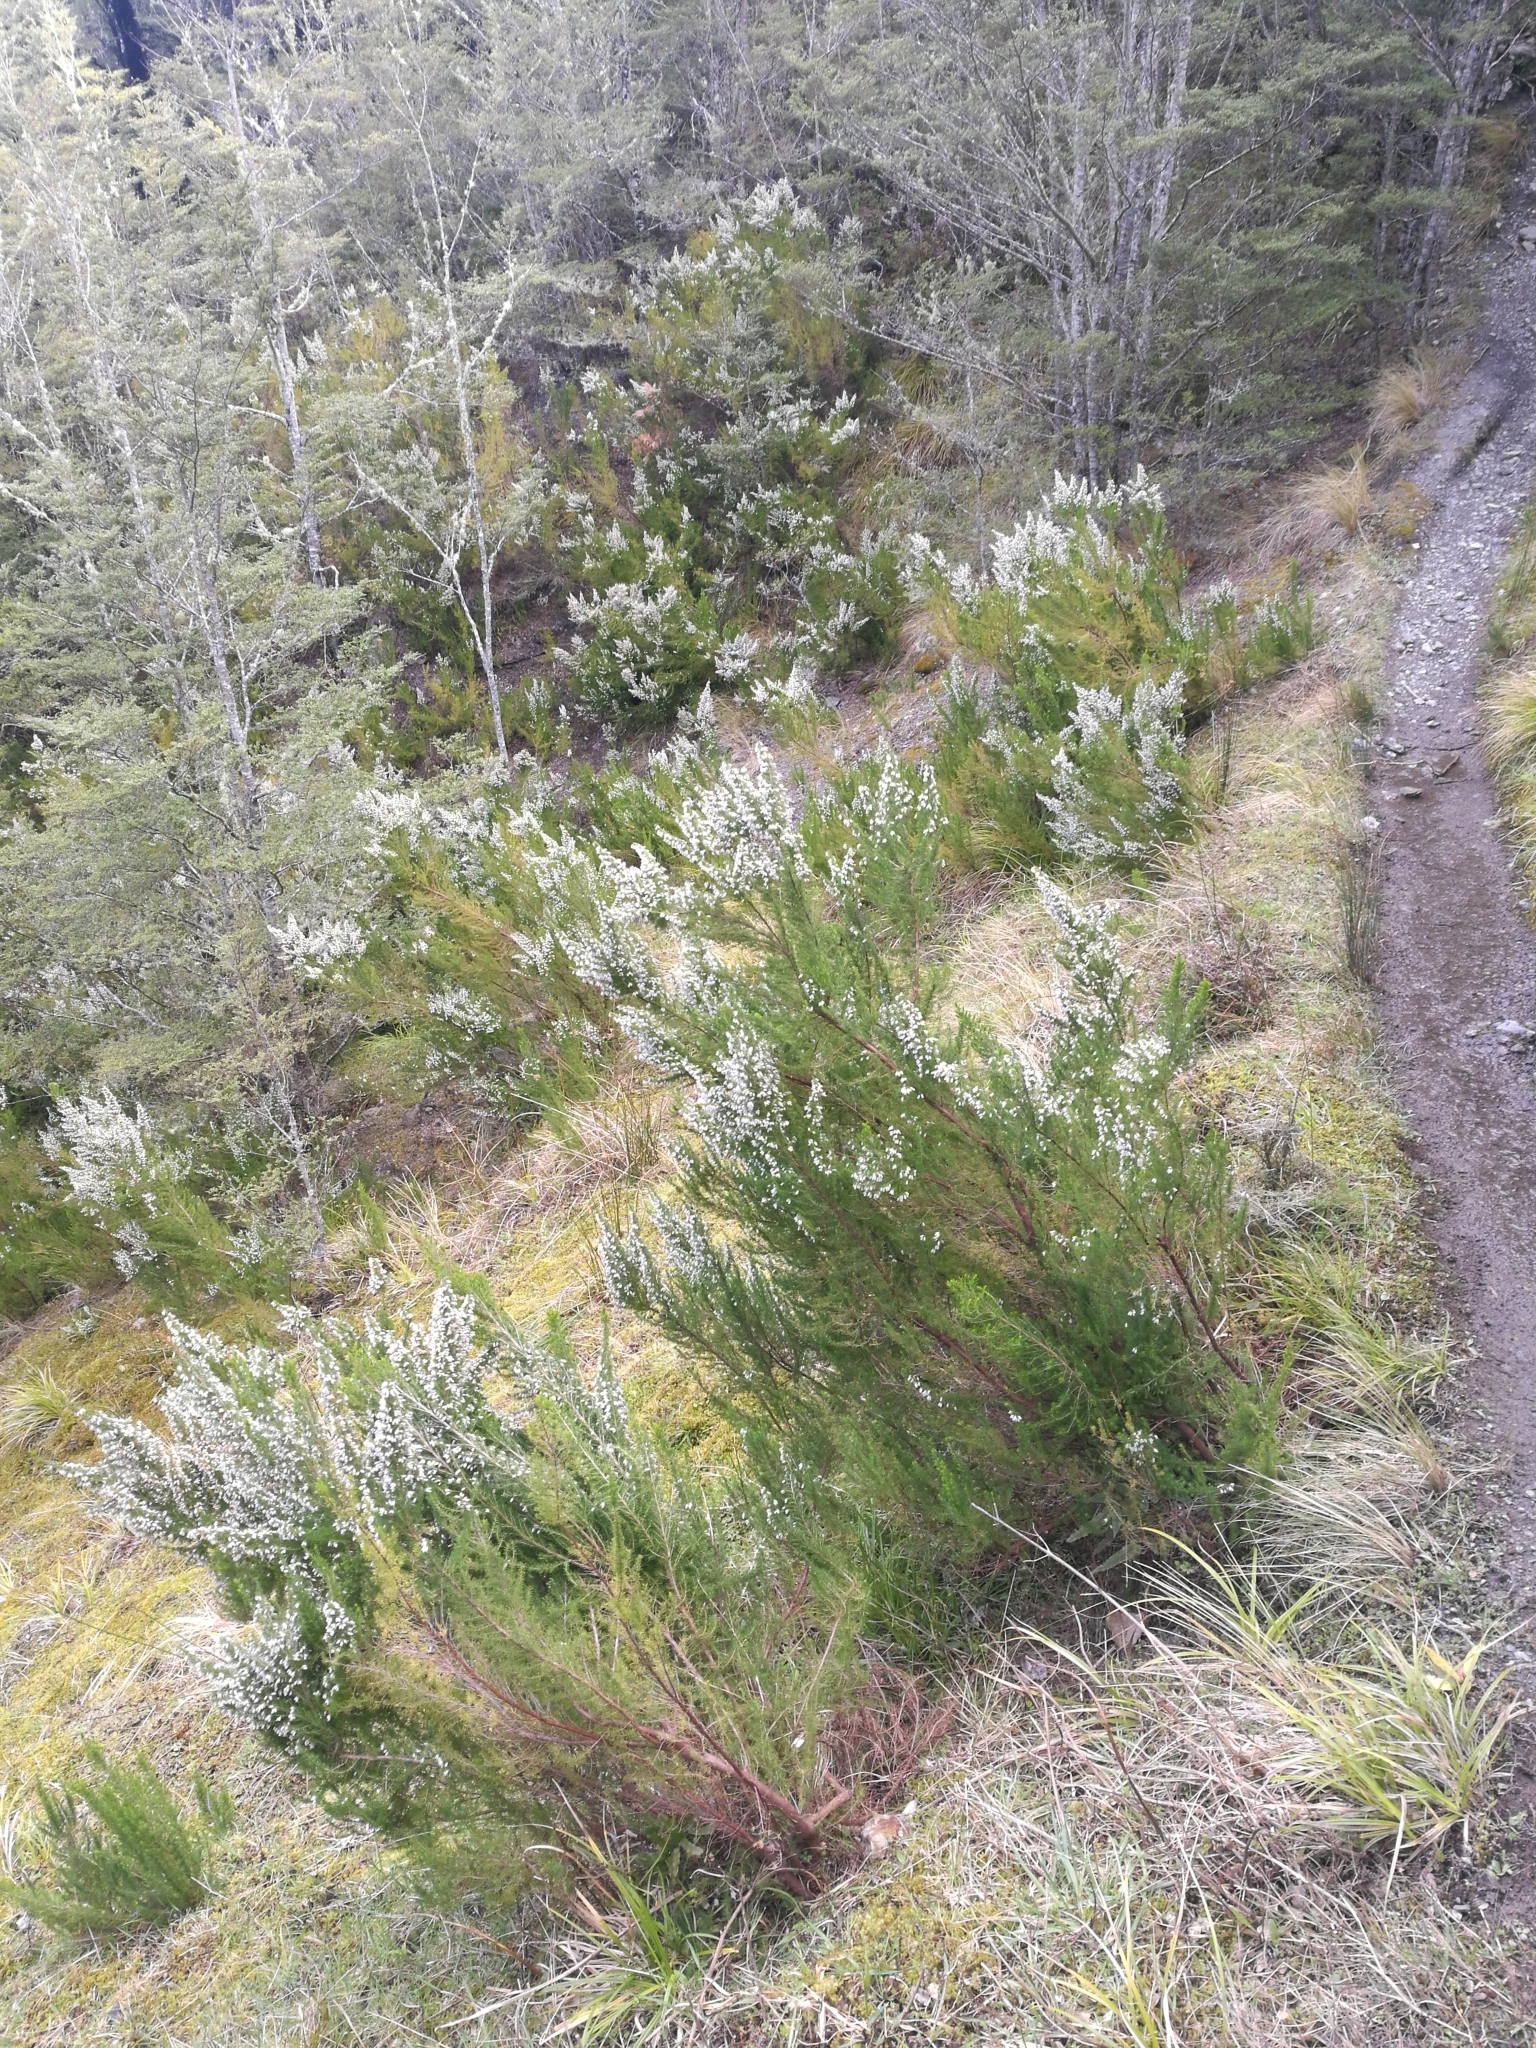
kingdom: Plantae
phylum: Tracheophyta
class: Magnoliopsida
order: Ericales
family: Ericaceae
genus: Erica
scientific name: Erica lusitanica
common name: Spanish heath
